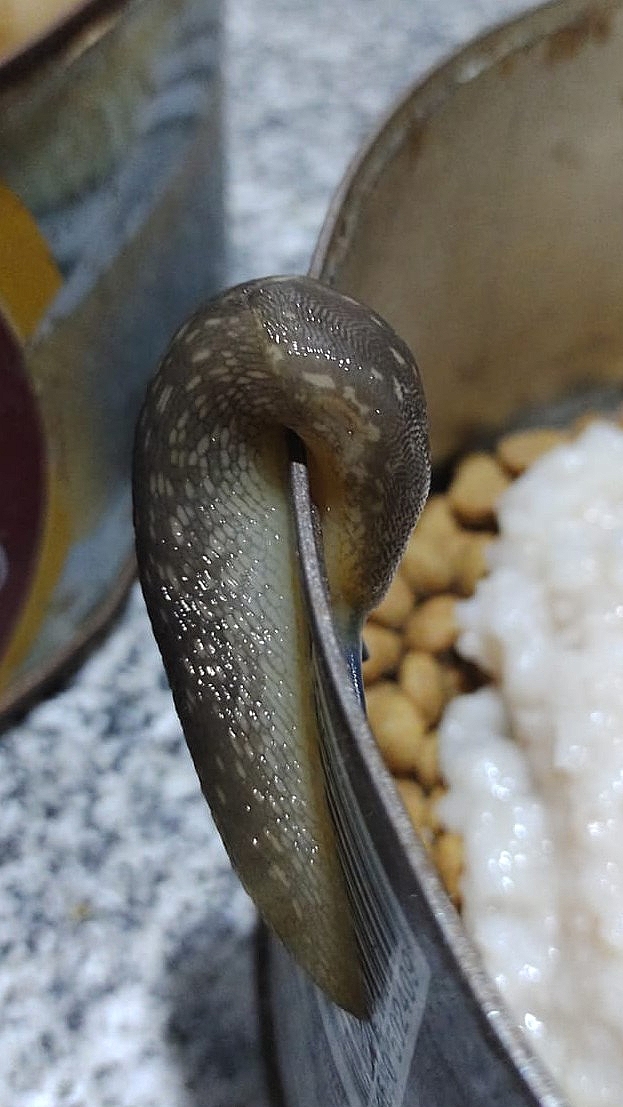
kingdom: Animalia
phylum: Mollusca
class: Gastropoda
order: Stylommatophora
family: Limacidae
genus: Limacus
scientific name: Limacus flavus
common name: Yellow gardenslug
